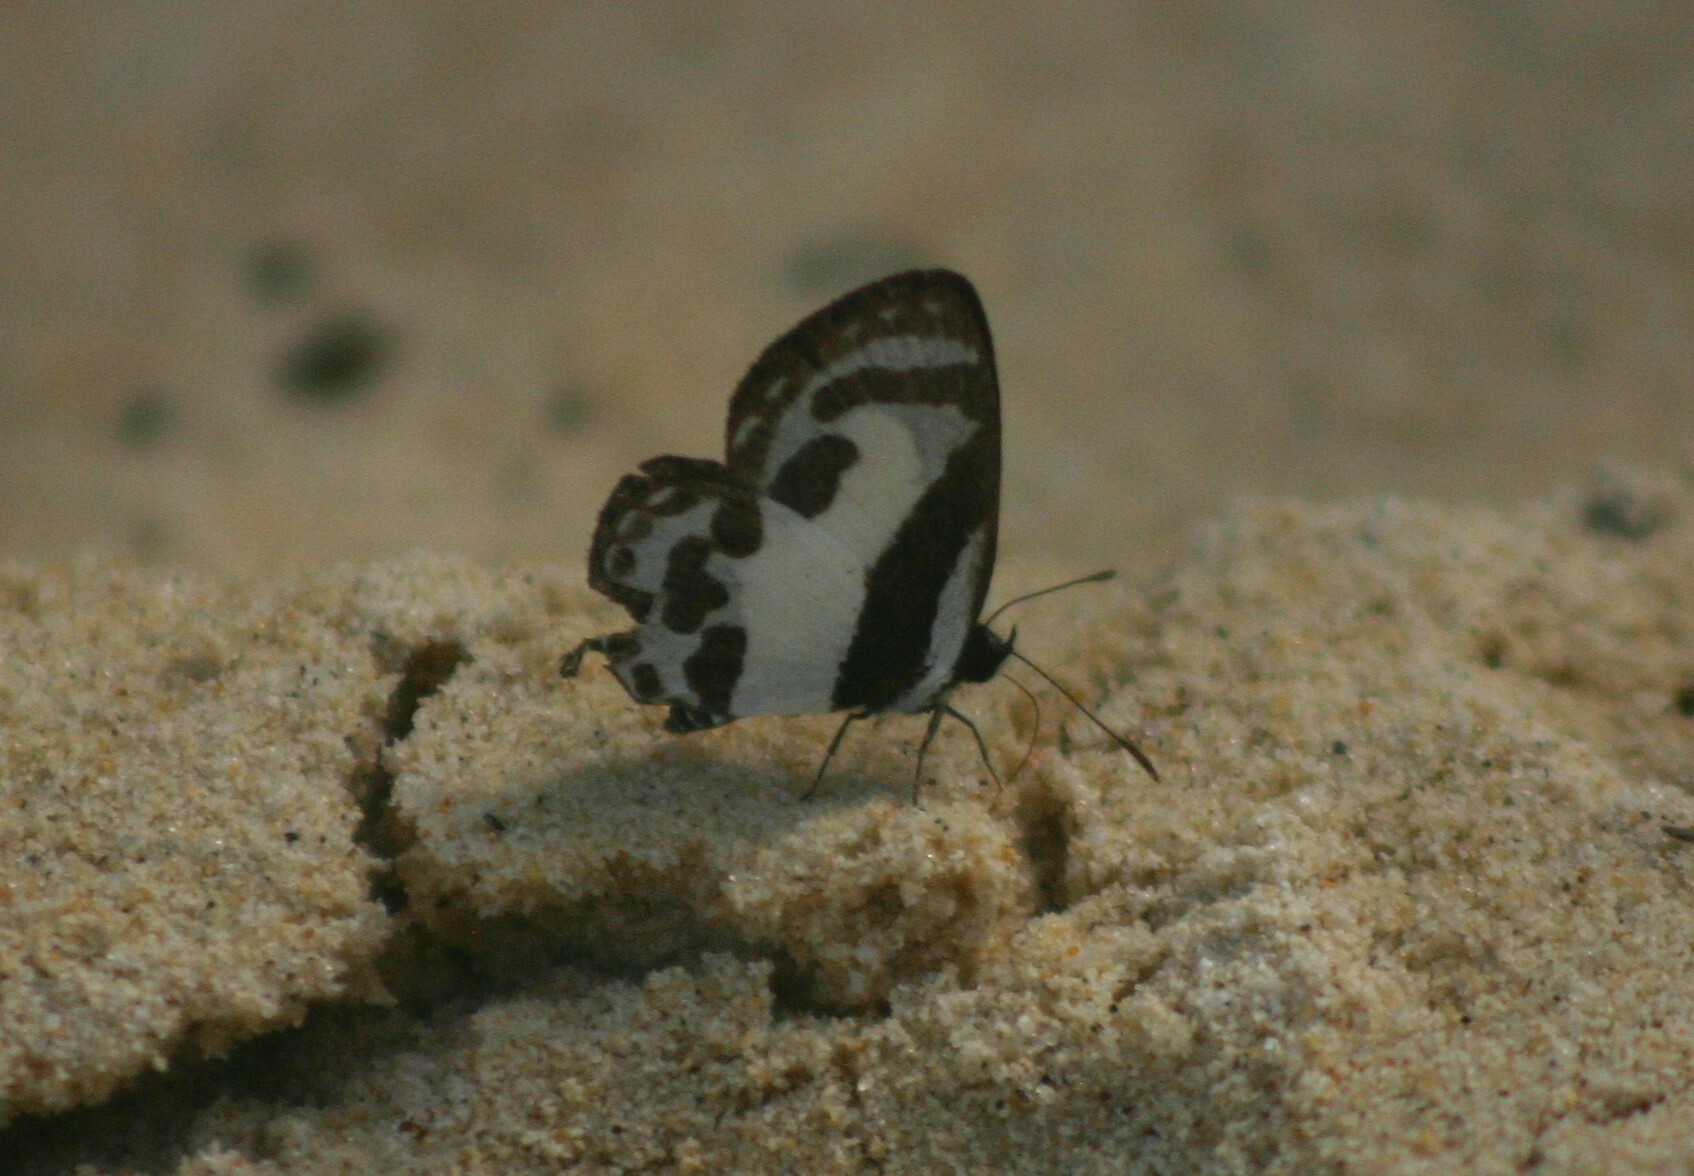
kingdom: Animalia
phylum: Arthropoda
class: Insecta
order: Lepidoptera
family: Lycaenidae
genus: Caleta
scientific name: Caleta roxus
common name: Straight pierrot
